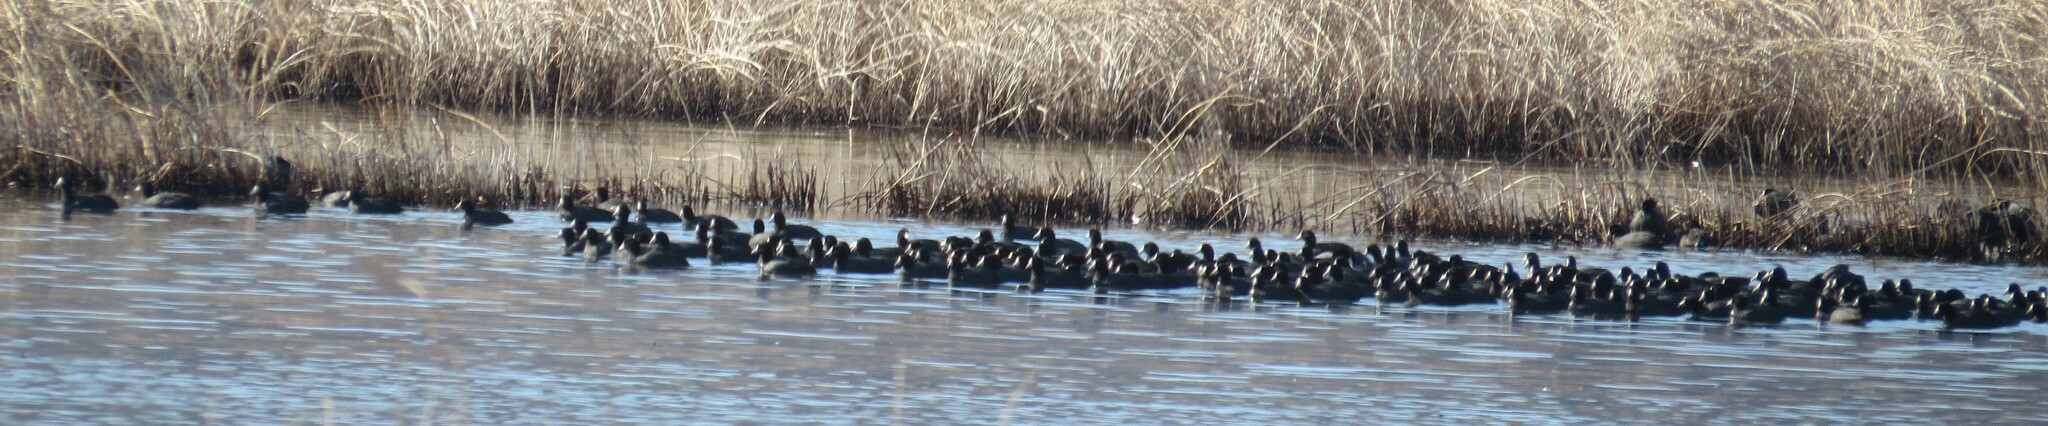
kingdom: Animalia
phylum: Chordata
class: Aves
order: Gruiformes
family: Rallidae
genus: Fulica
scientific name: Fulica americana
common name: American coot
